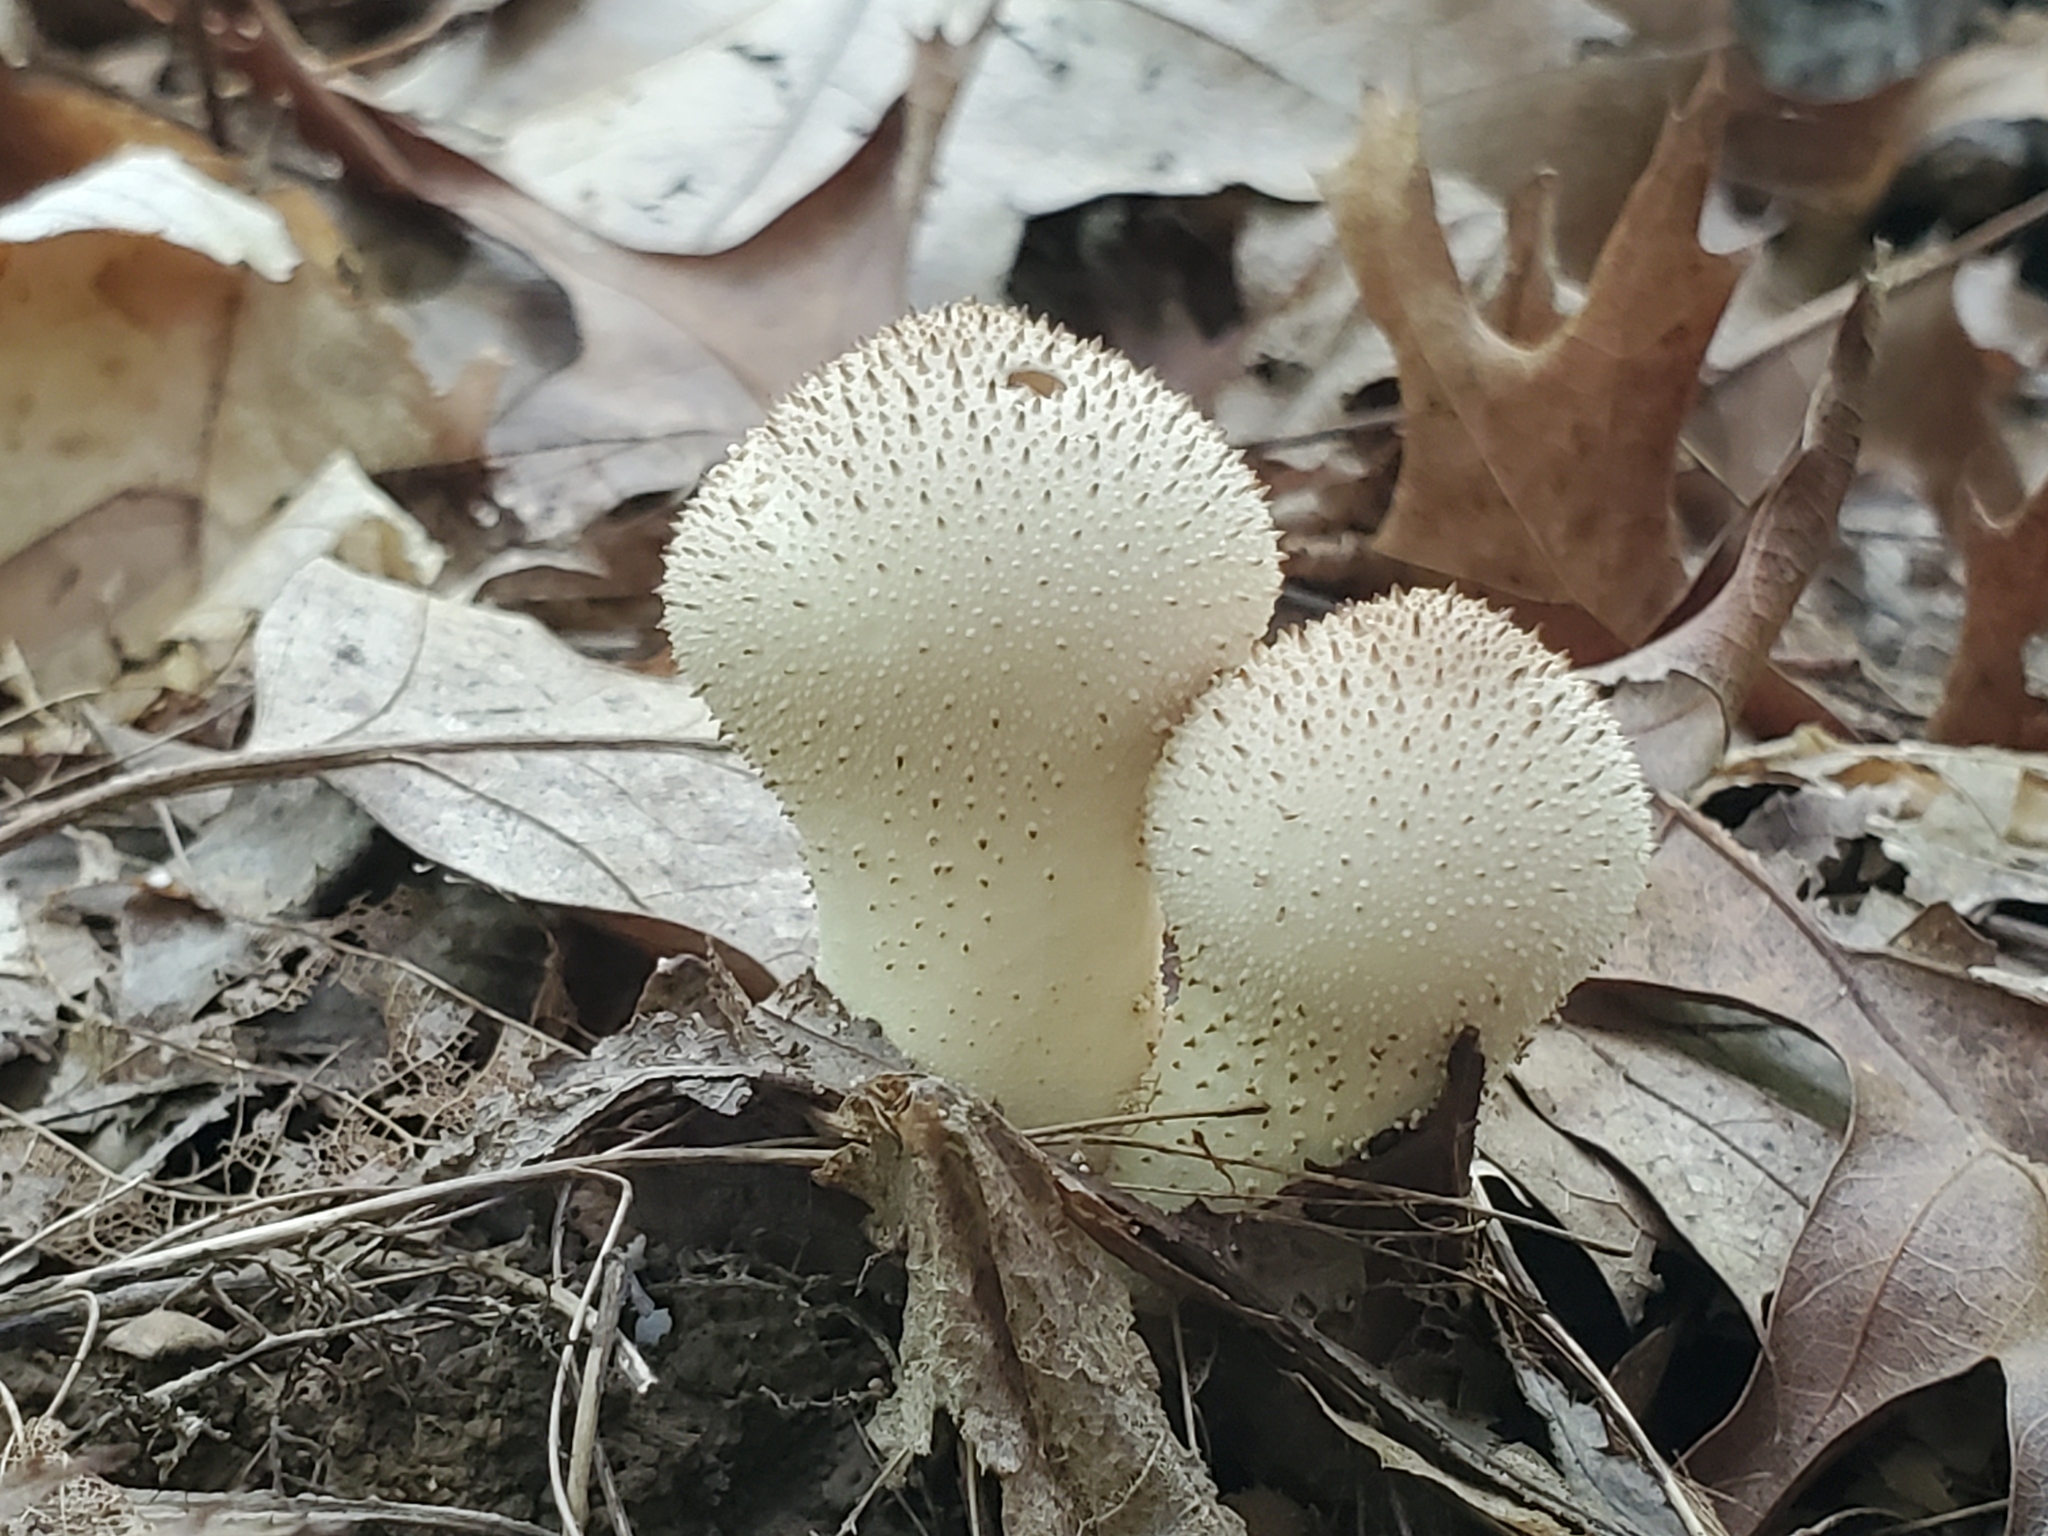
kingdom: Fungi
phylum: Basidiomycota
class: Agaricomycetes
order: Agaricales
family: Lycoperdaceae
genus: Lycoperdon
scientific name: Lycoperdon perlatum
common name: Common puffball
